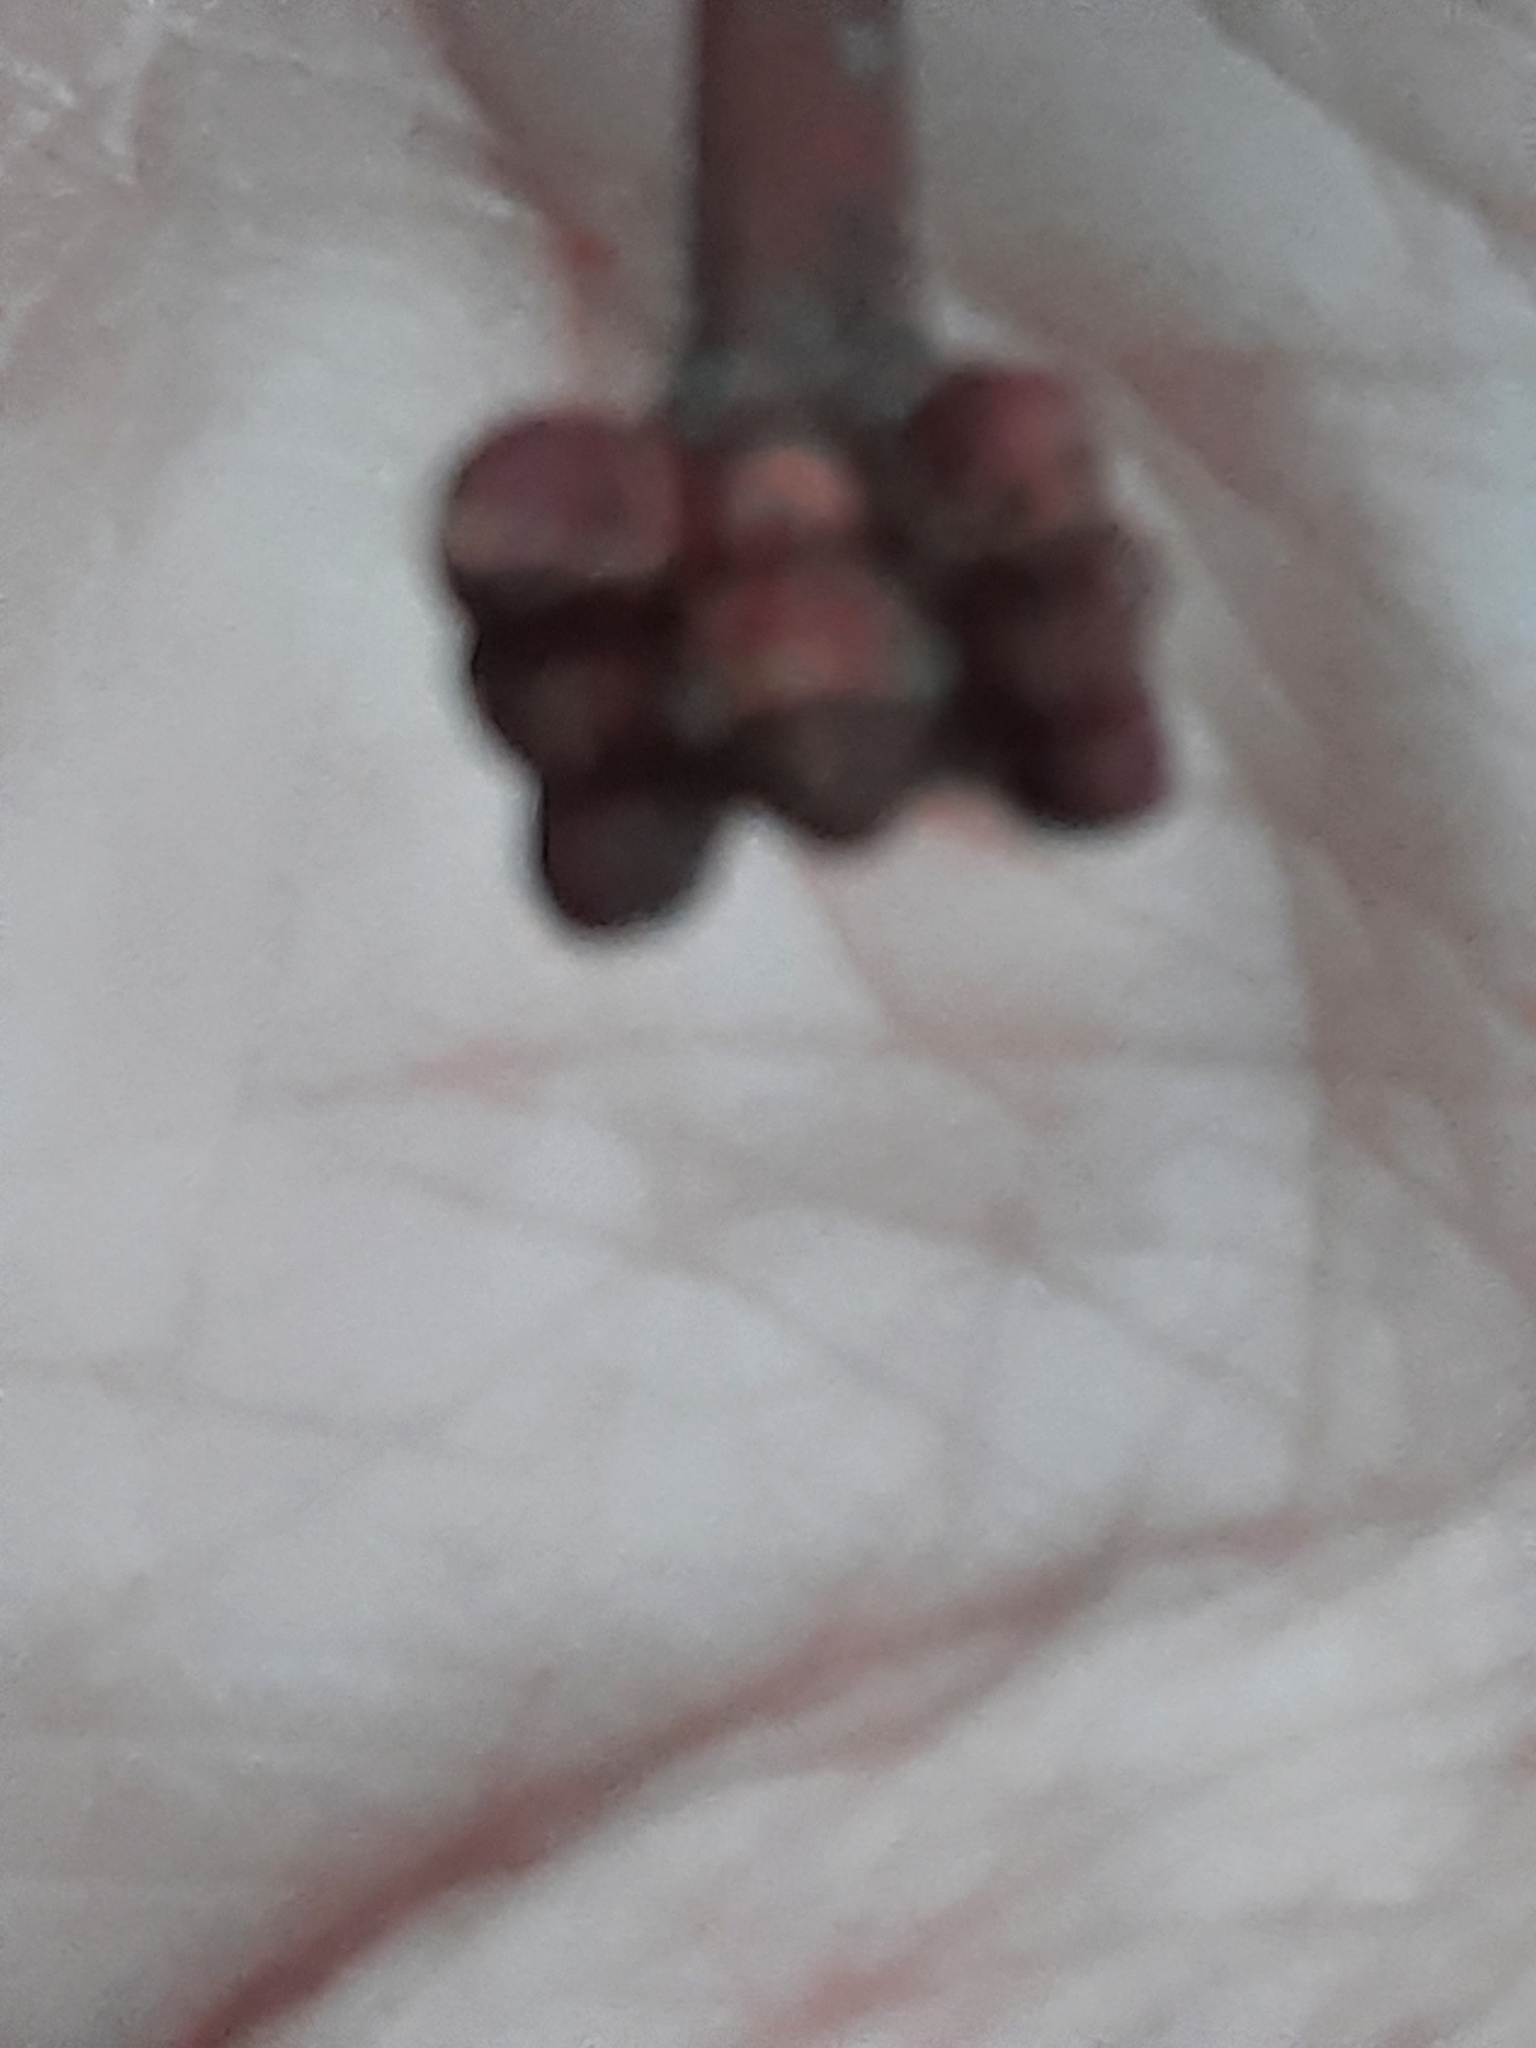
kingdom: Plantae
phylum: Tracheophyta
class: Magnoliopsida
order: Sapindales
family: Sapindaceae
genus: Acer
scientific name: Acer rubrum
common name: Red maple
